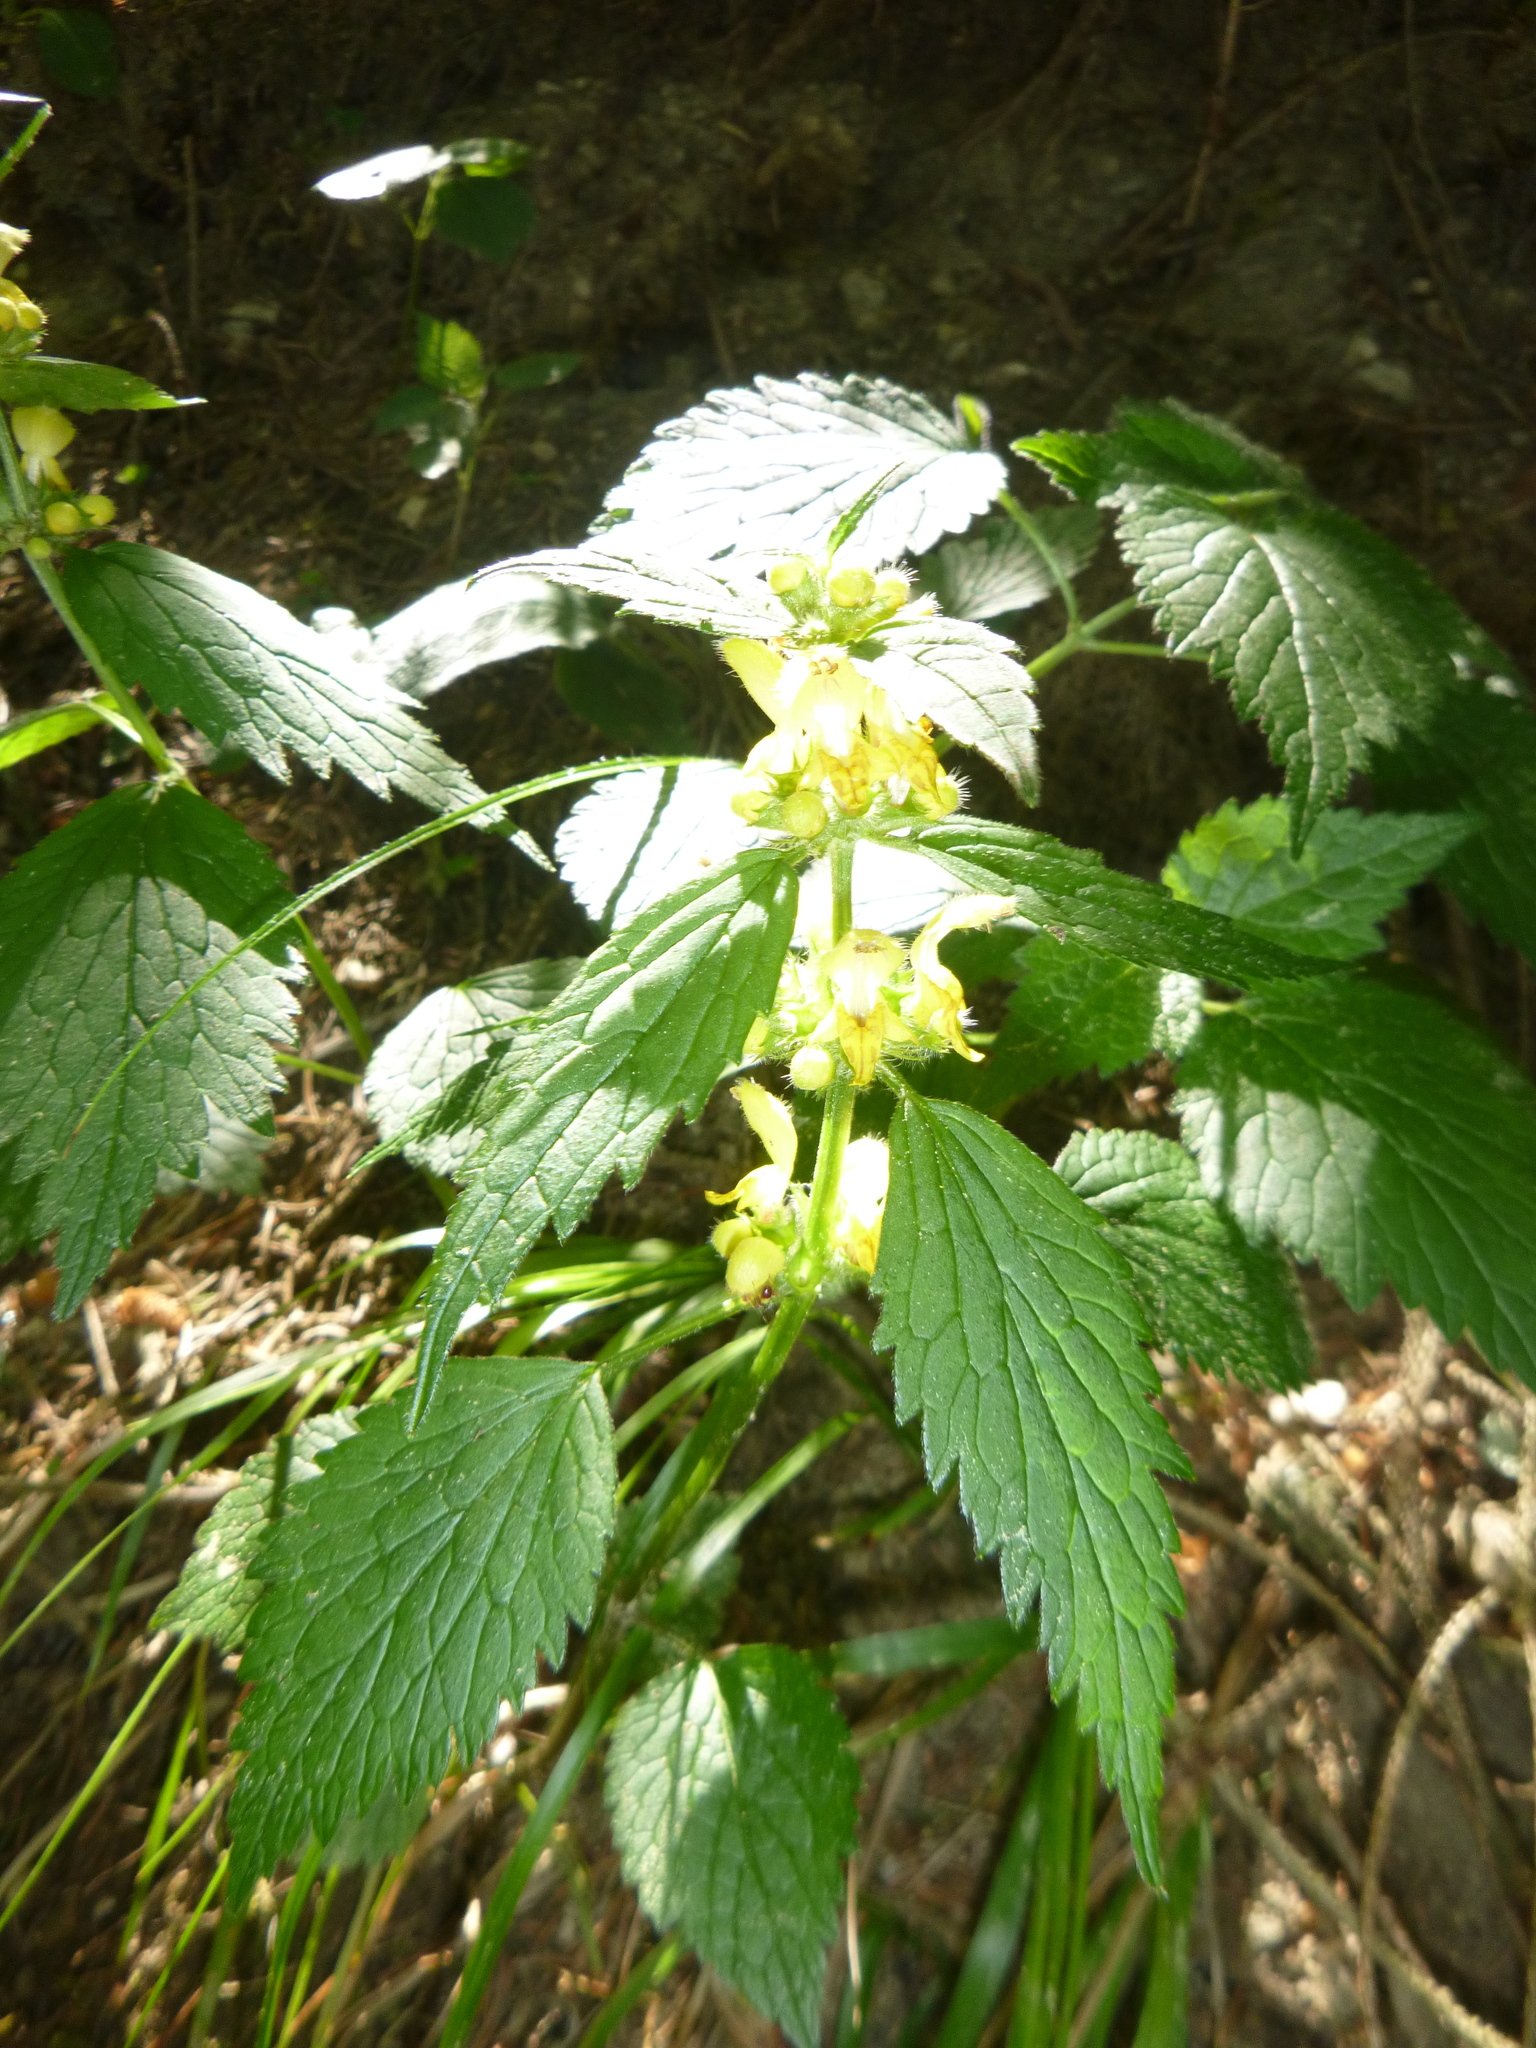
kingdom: Plantae
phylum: Tracheophyta
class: Magnoliopsida
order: Lamiales
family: Lamiaceae
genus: Lamium
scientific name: Lamium galeobdolon
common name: Yellow archangel
